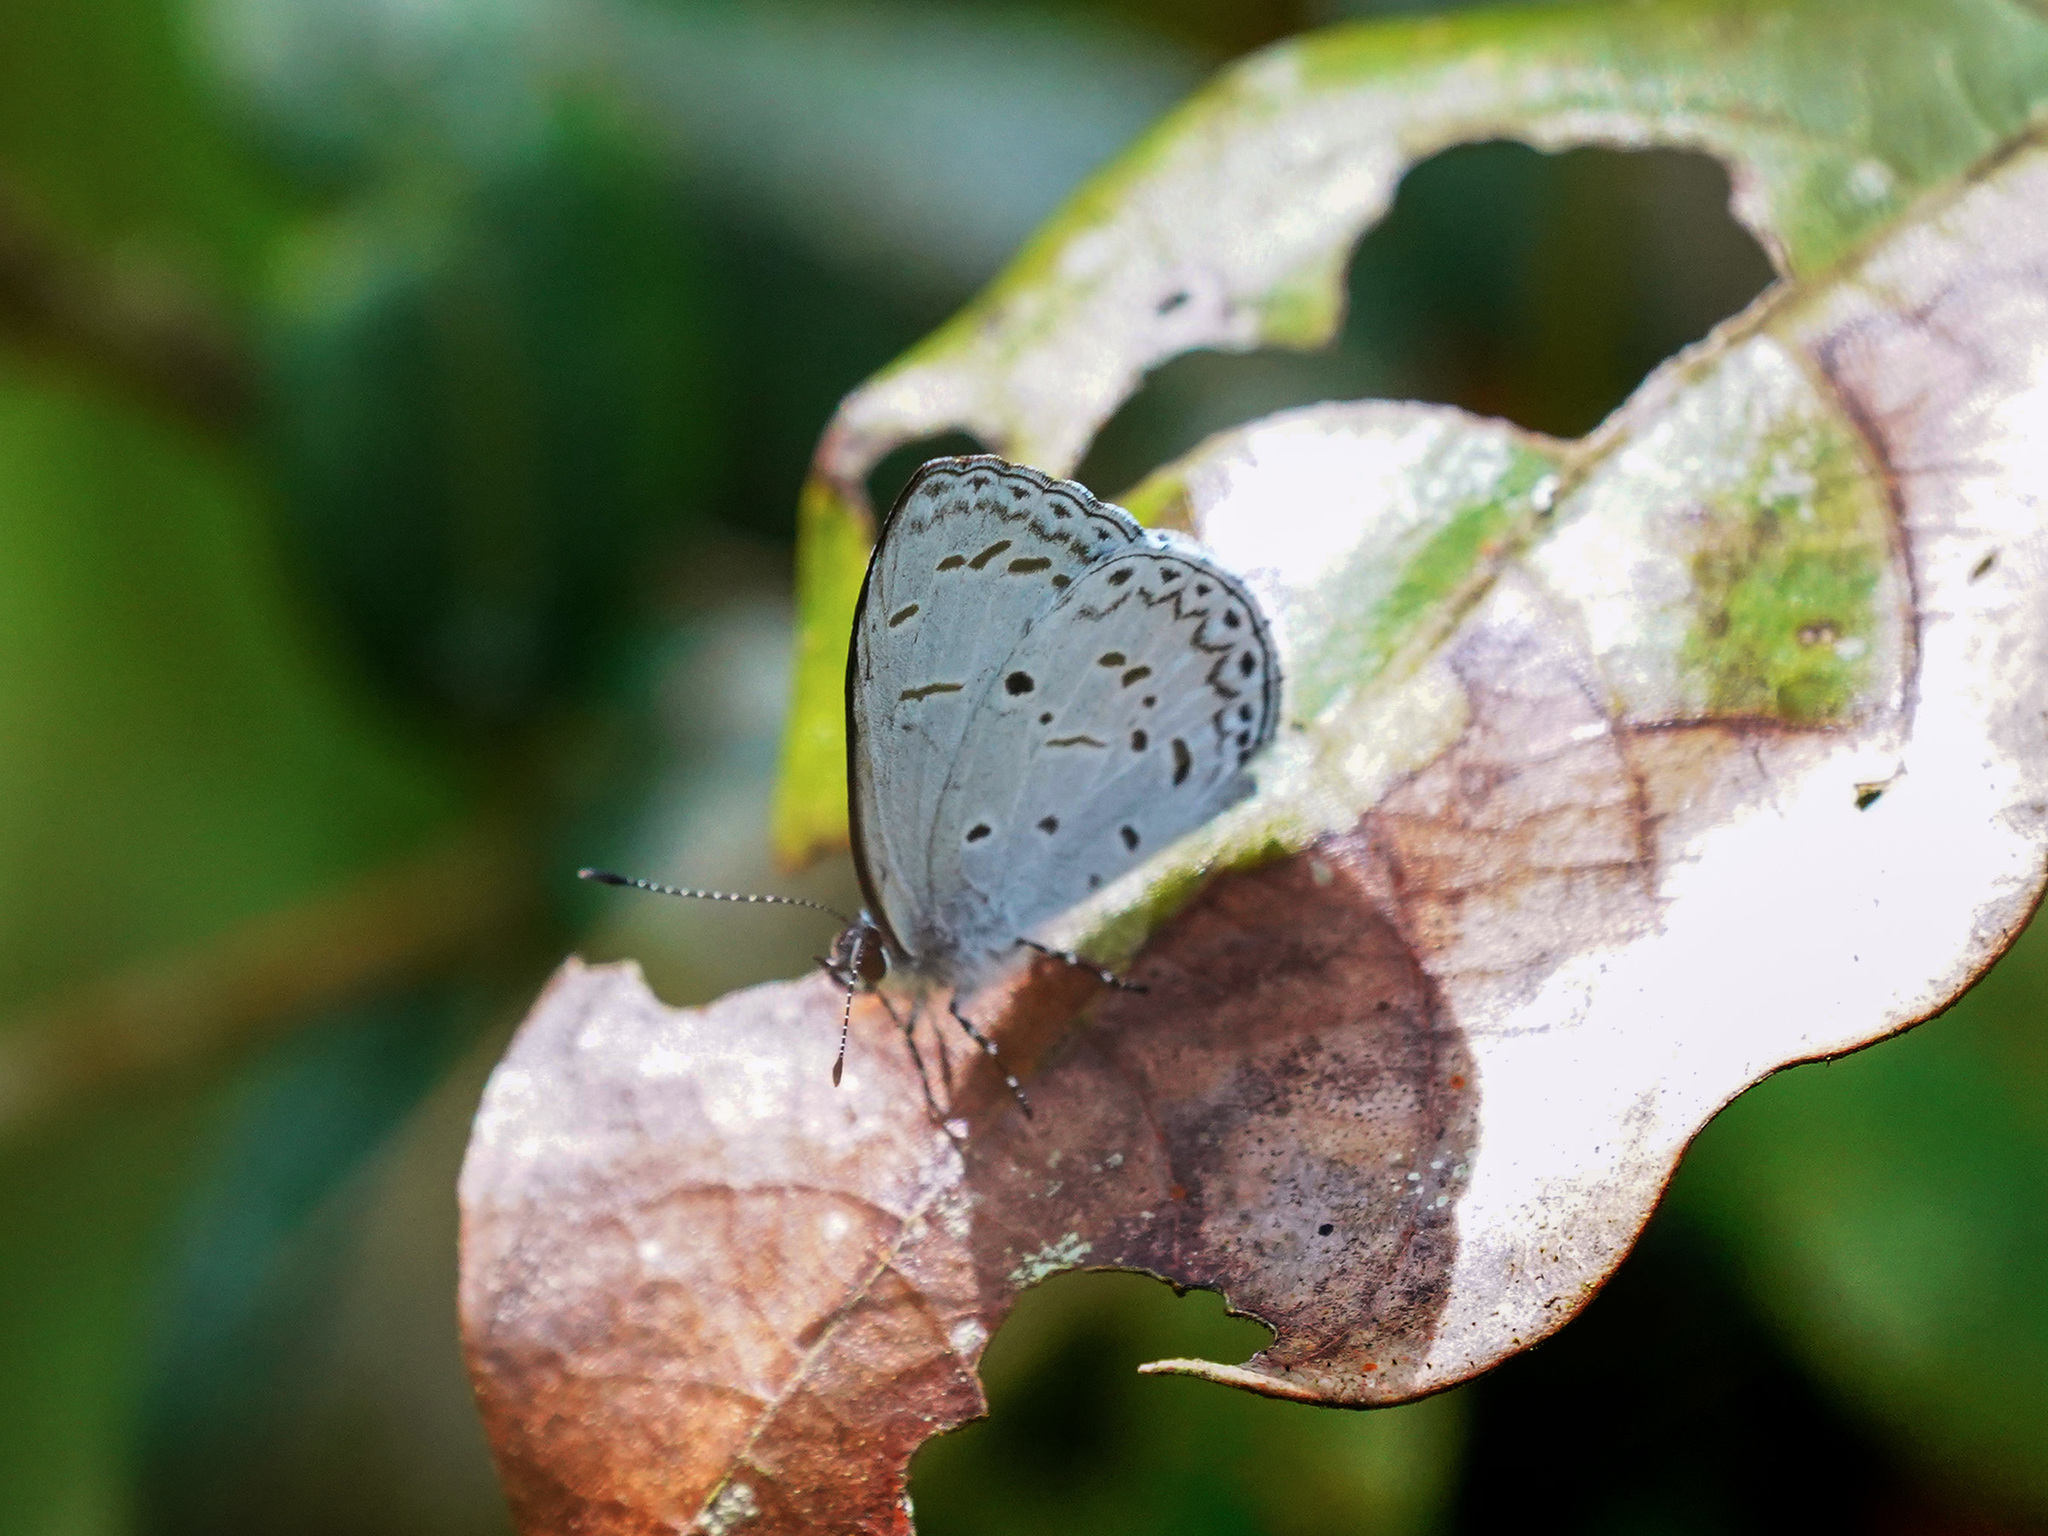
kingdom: Animalia
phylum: Arthropoda
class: Insecta
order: Lepidoptera
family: Lycaenidae
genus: Udara
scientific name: Udara
